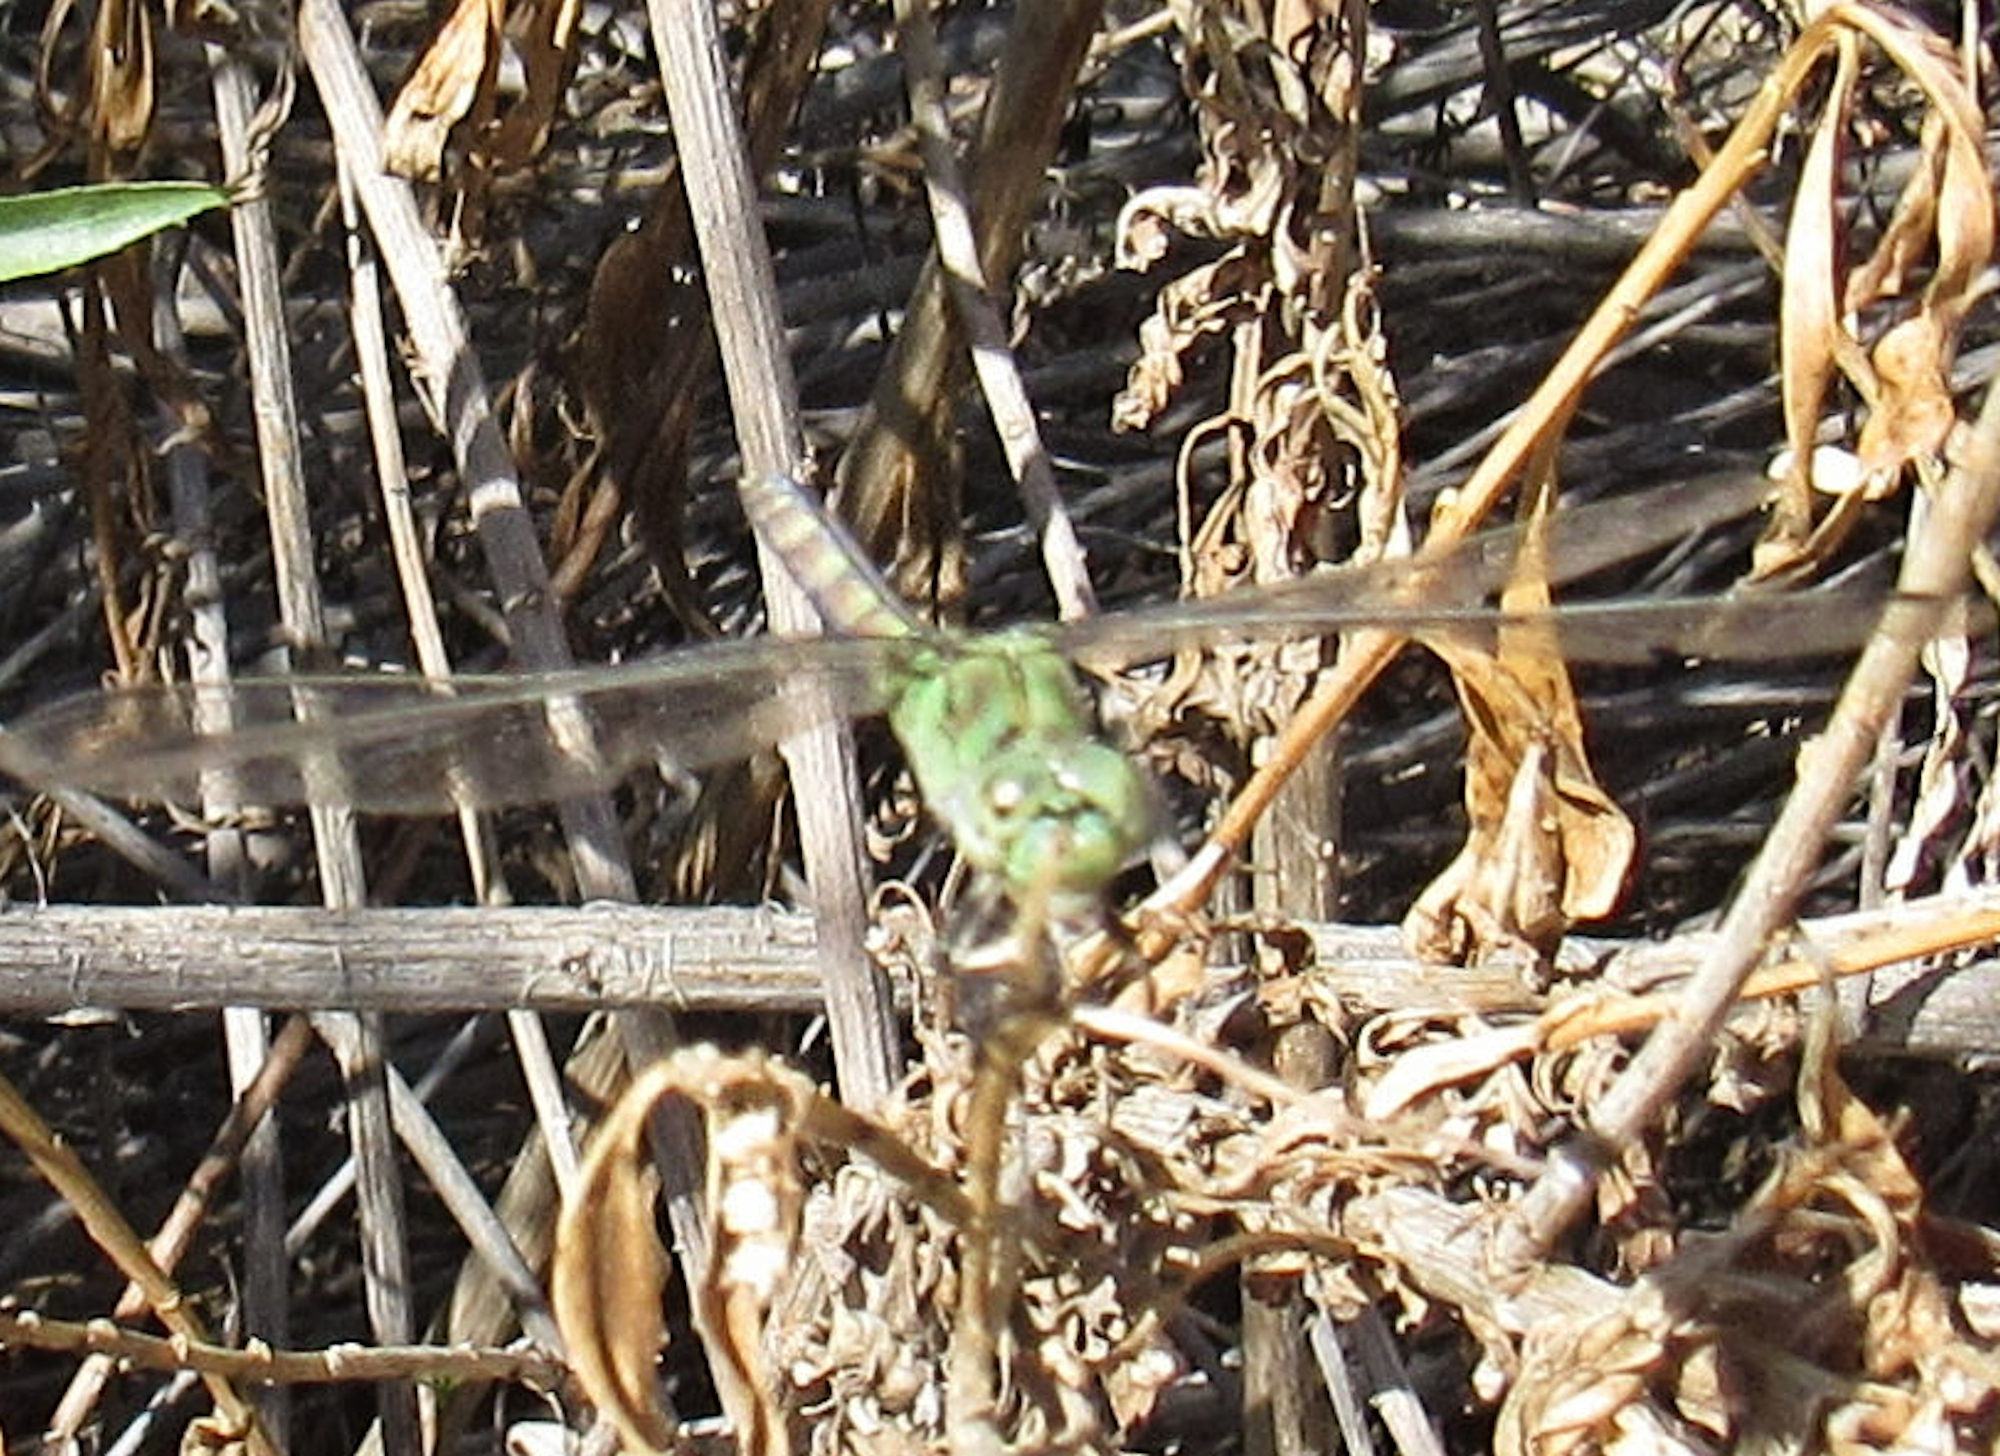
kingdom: Animalia
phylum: Arthropoda
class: Insecta
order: Odonata
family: Libellulidae
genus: Erythemis
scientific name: Erythemis collocata
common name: Western pondhawk
